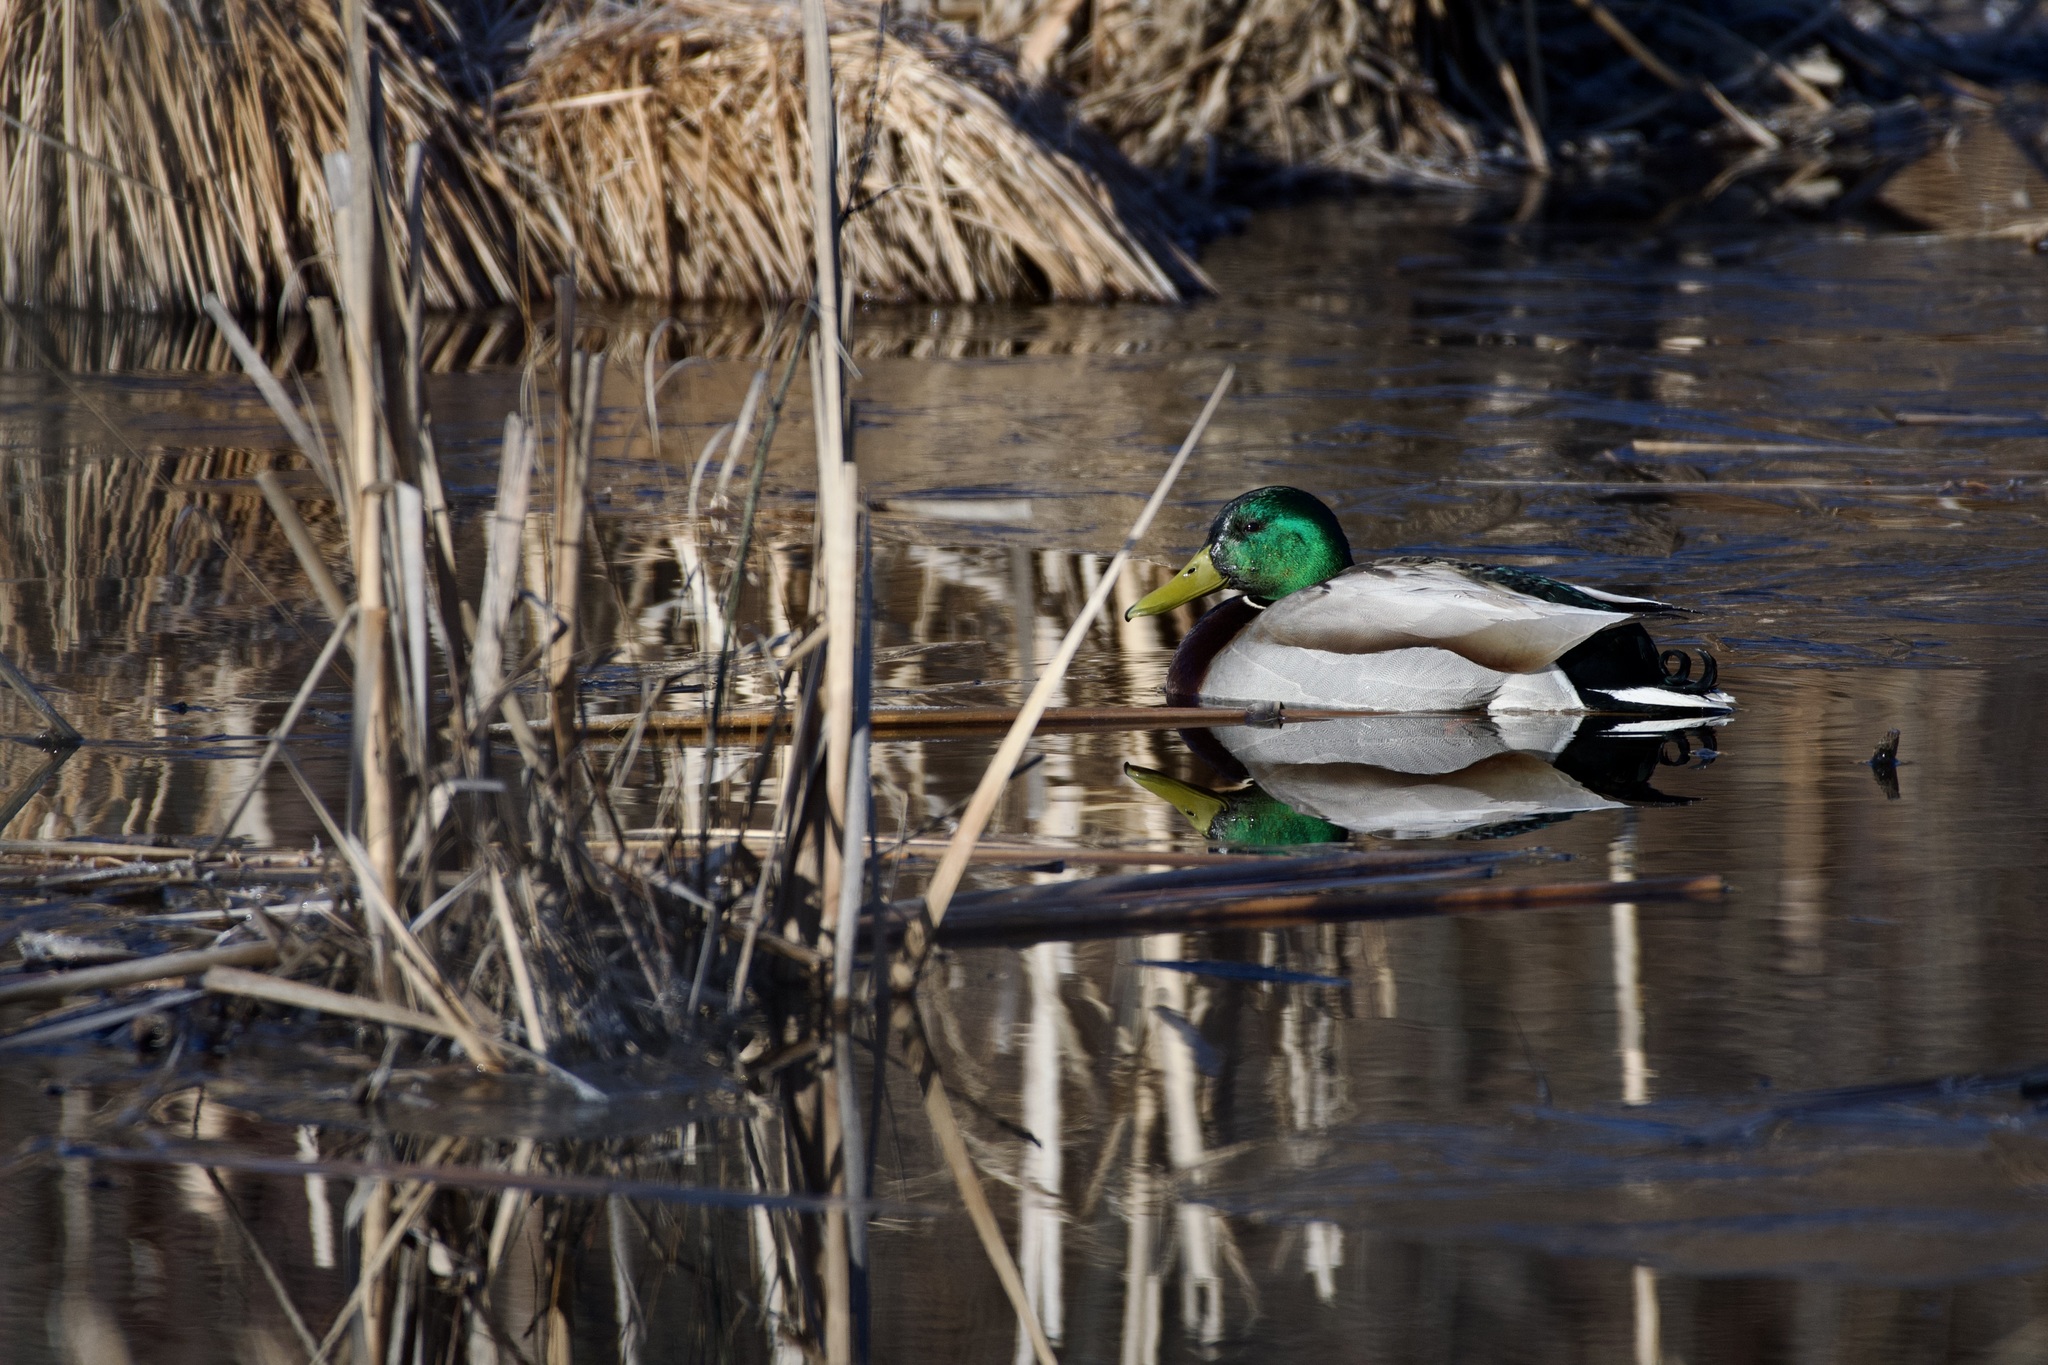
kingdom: Animalia
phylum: Chordata
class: Aves
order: Anseriformes
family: Anatidae
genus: Anas
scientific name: Anas platyrhynchos
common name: Mallard
